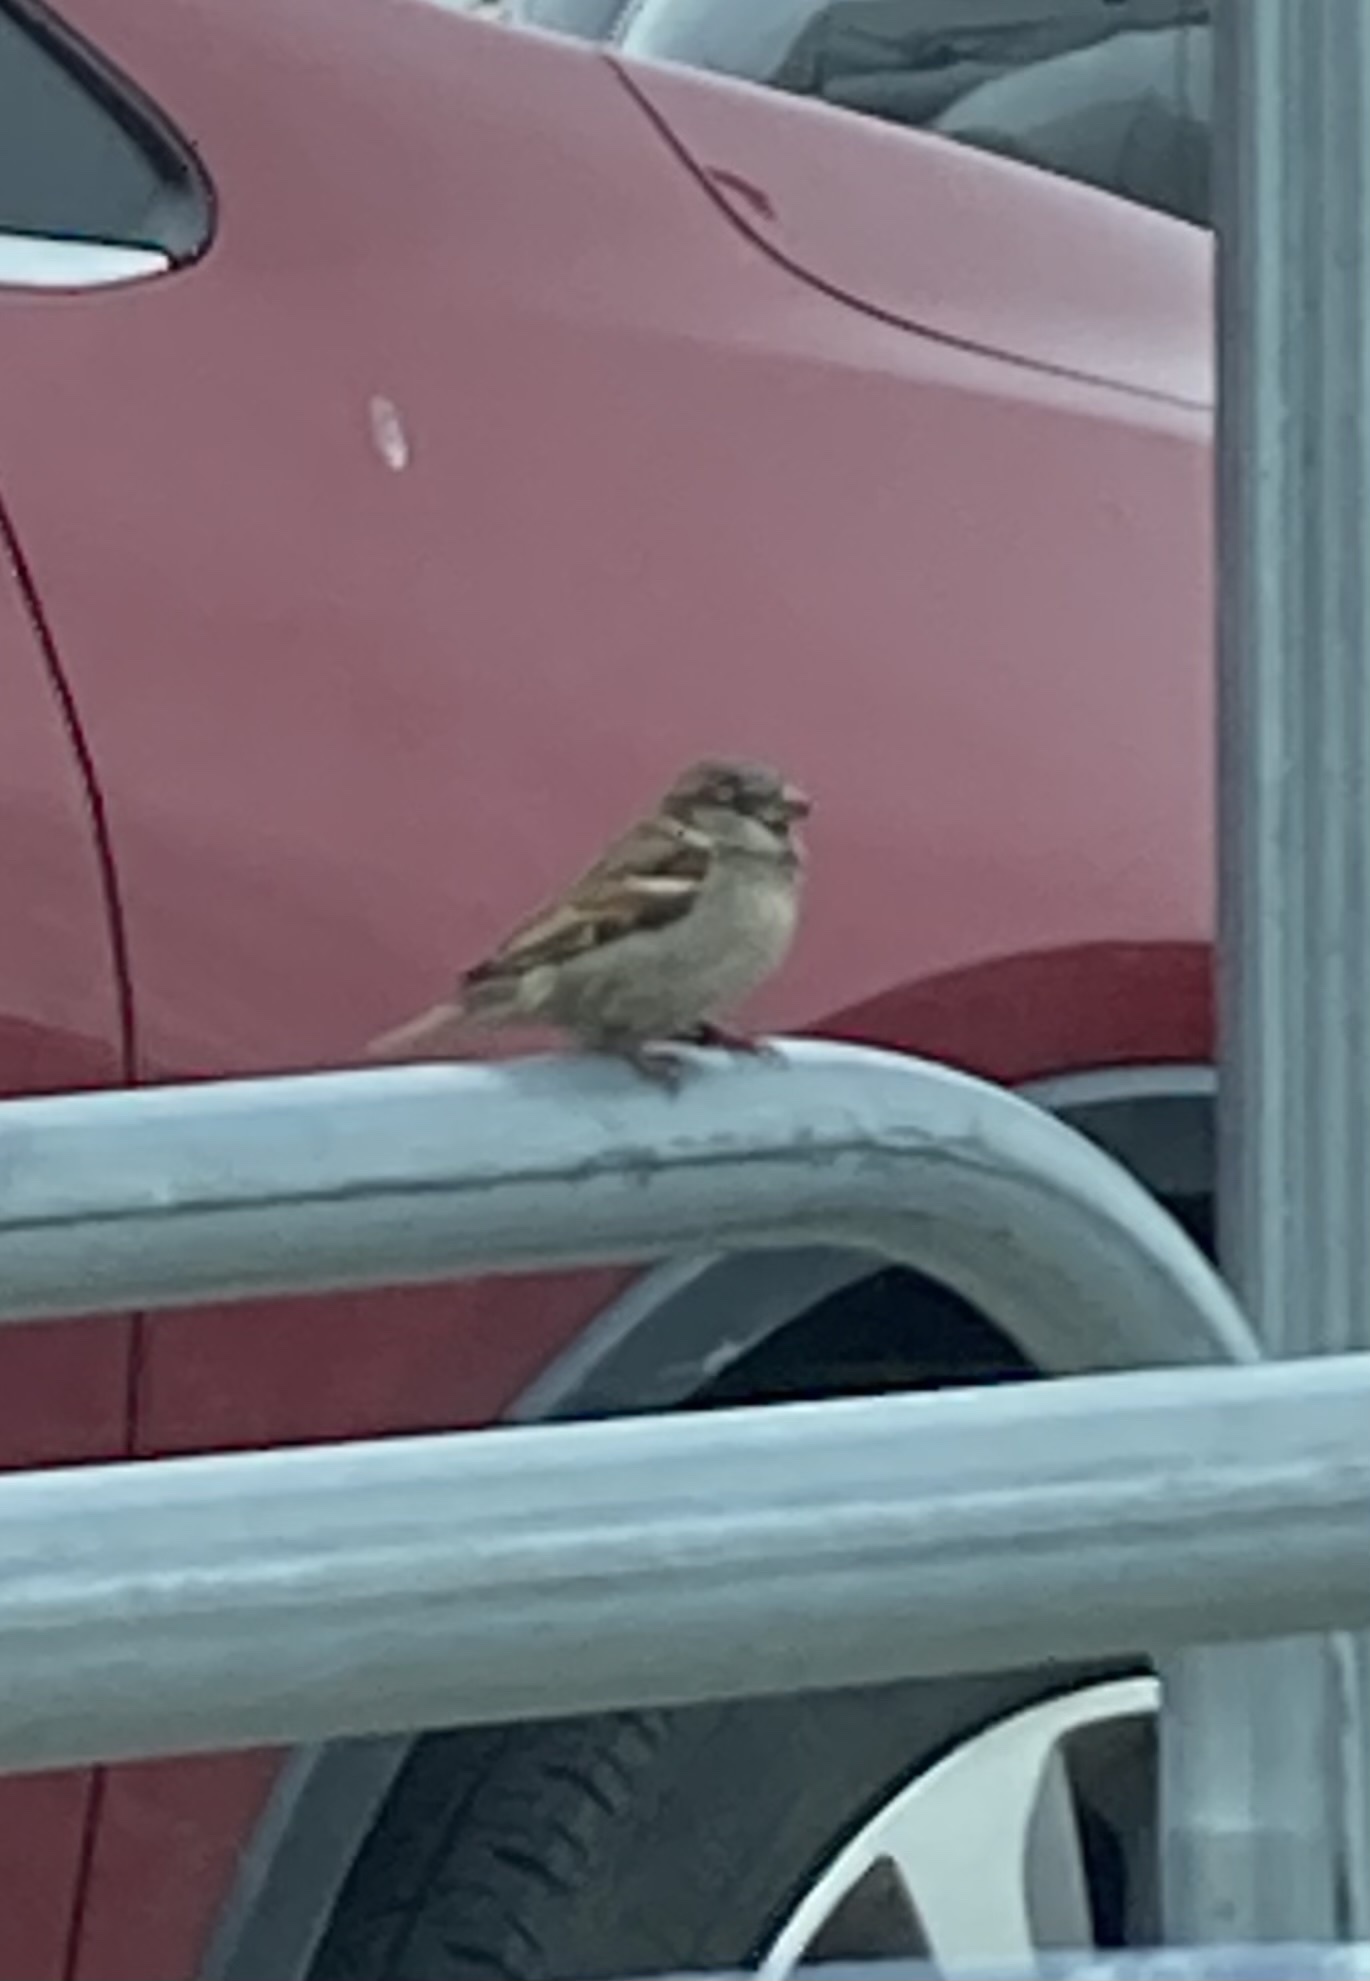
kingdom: Animalia
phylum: Chordata
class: Aves
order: Passeriformes
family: Passeridae
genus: Passer
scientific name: Passer domesticus
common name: House sparrow
